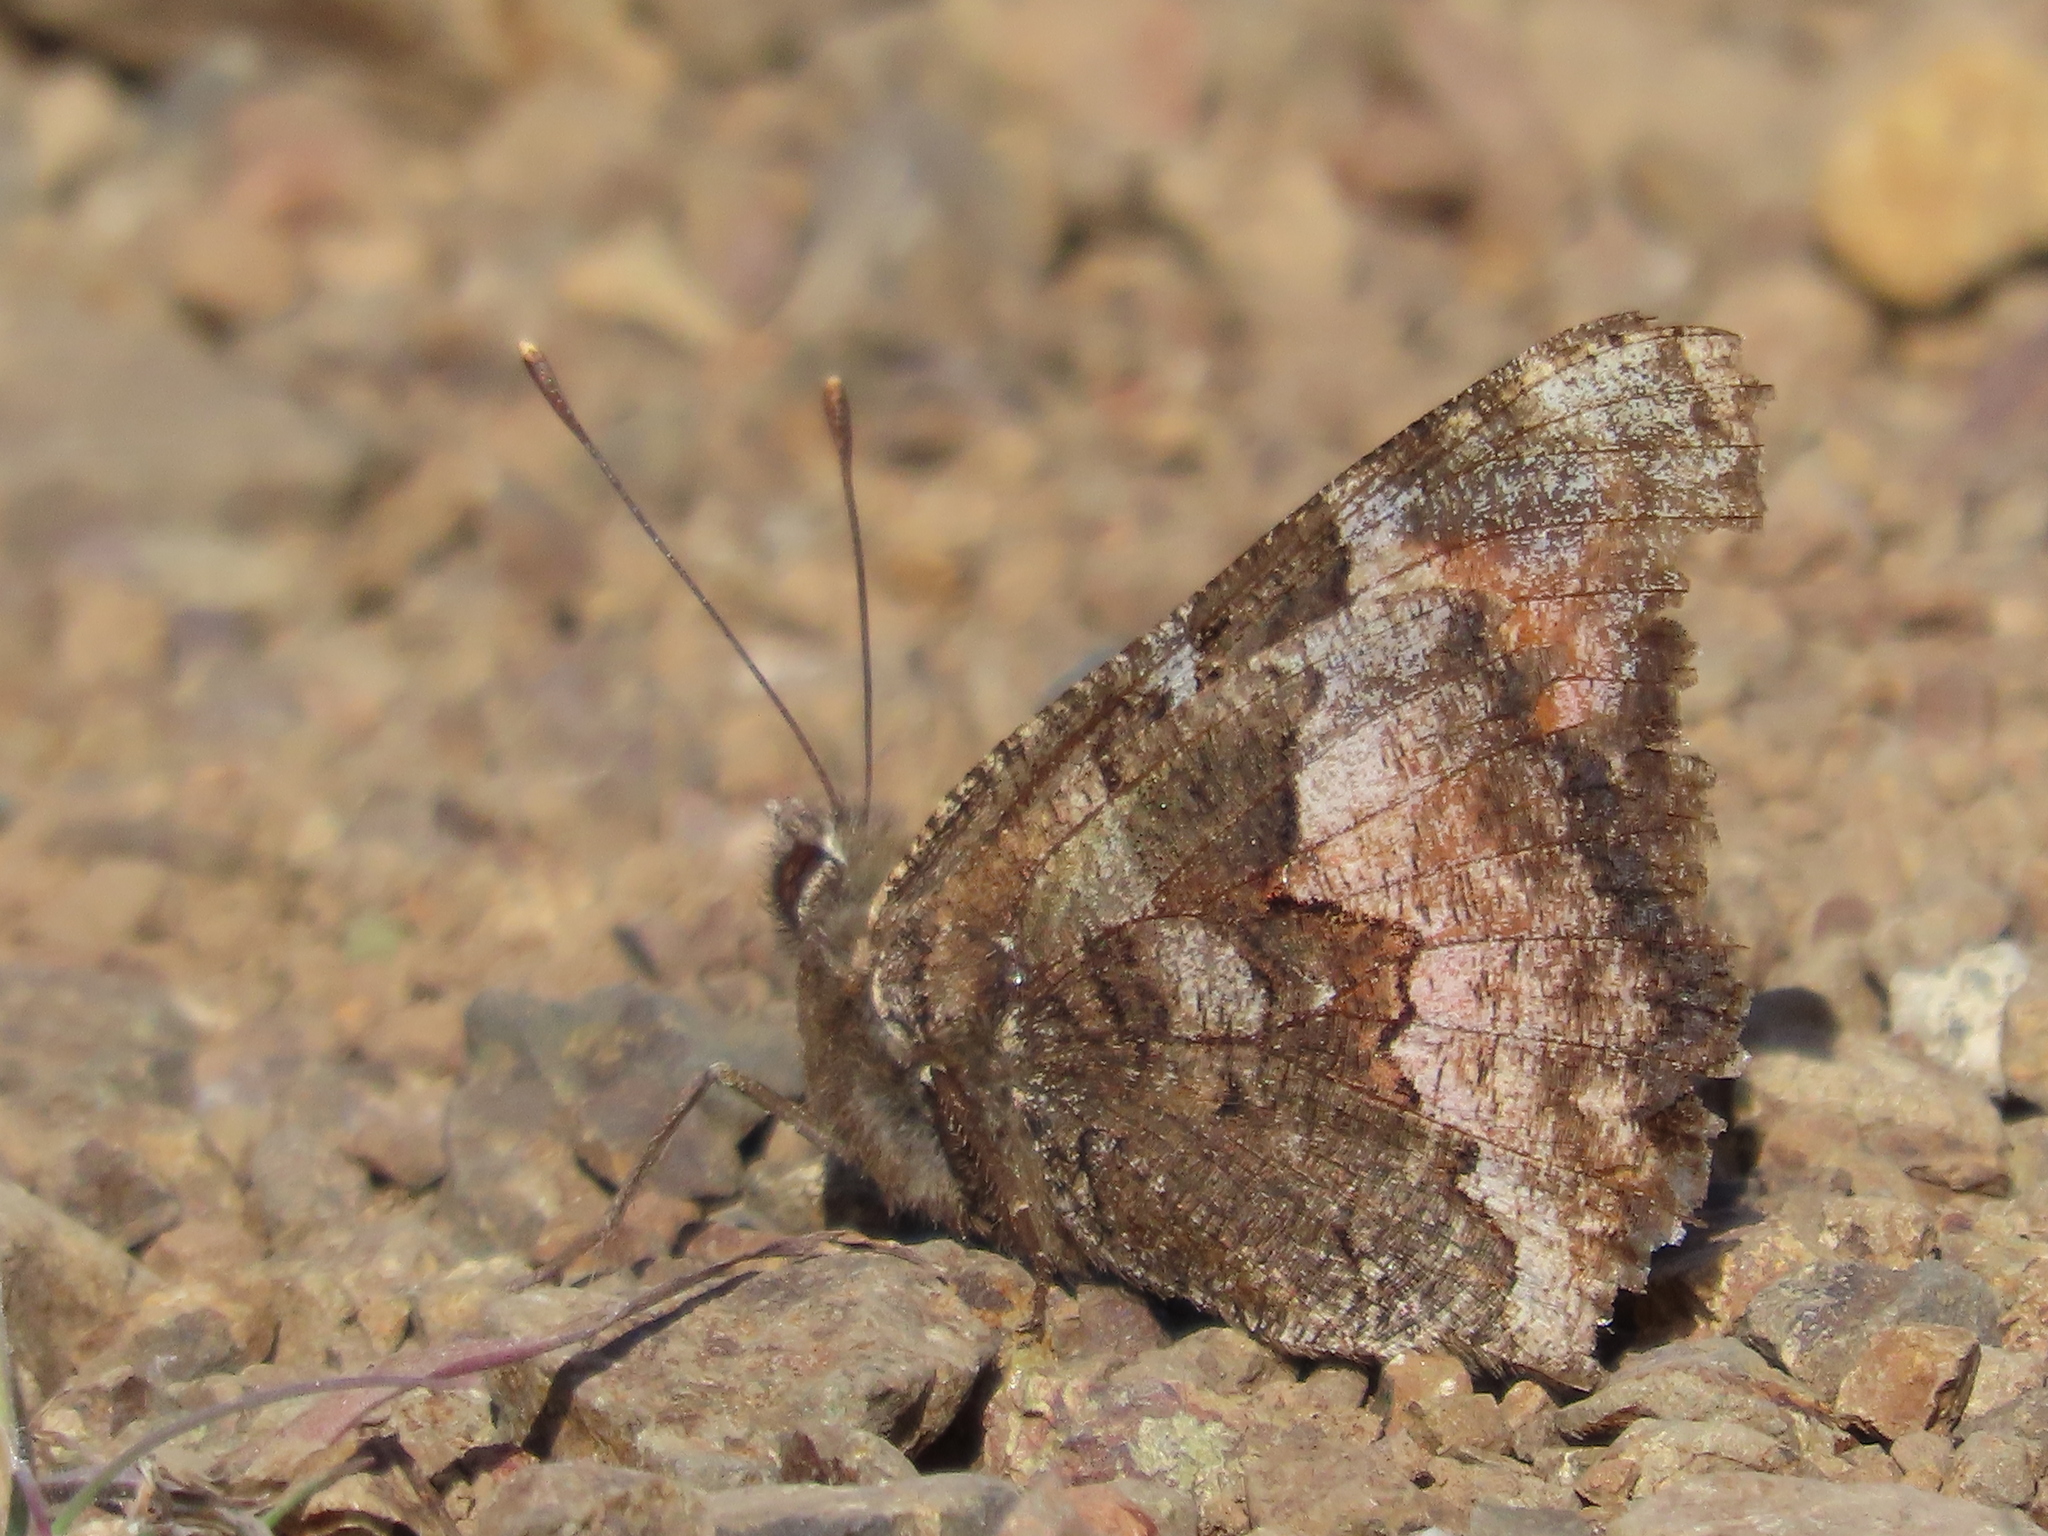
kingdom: Animalia
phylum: Arthropoda
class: Insecta
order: Lepidoptera
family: Nymphalidae
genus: Nymphalis
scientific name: Nymphalis californica
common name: California tortoiseshell
